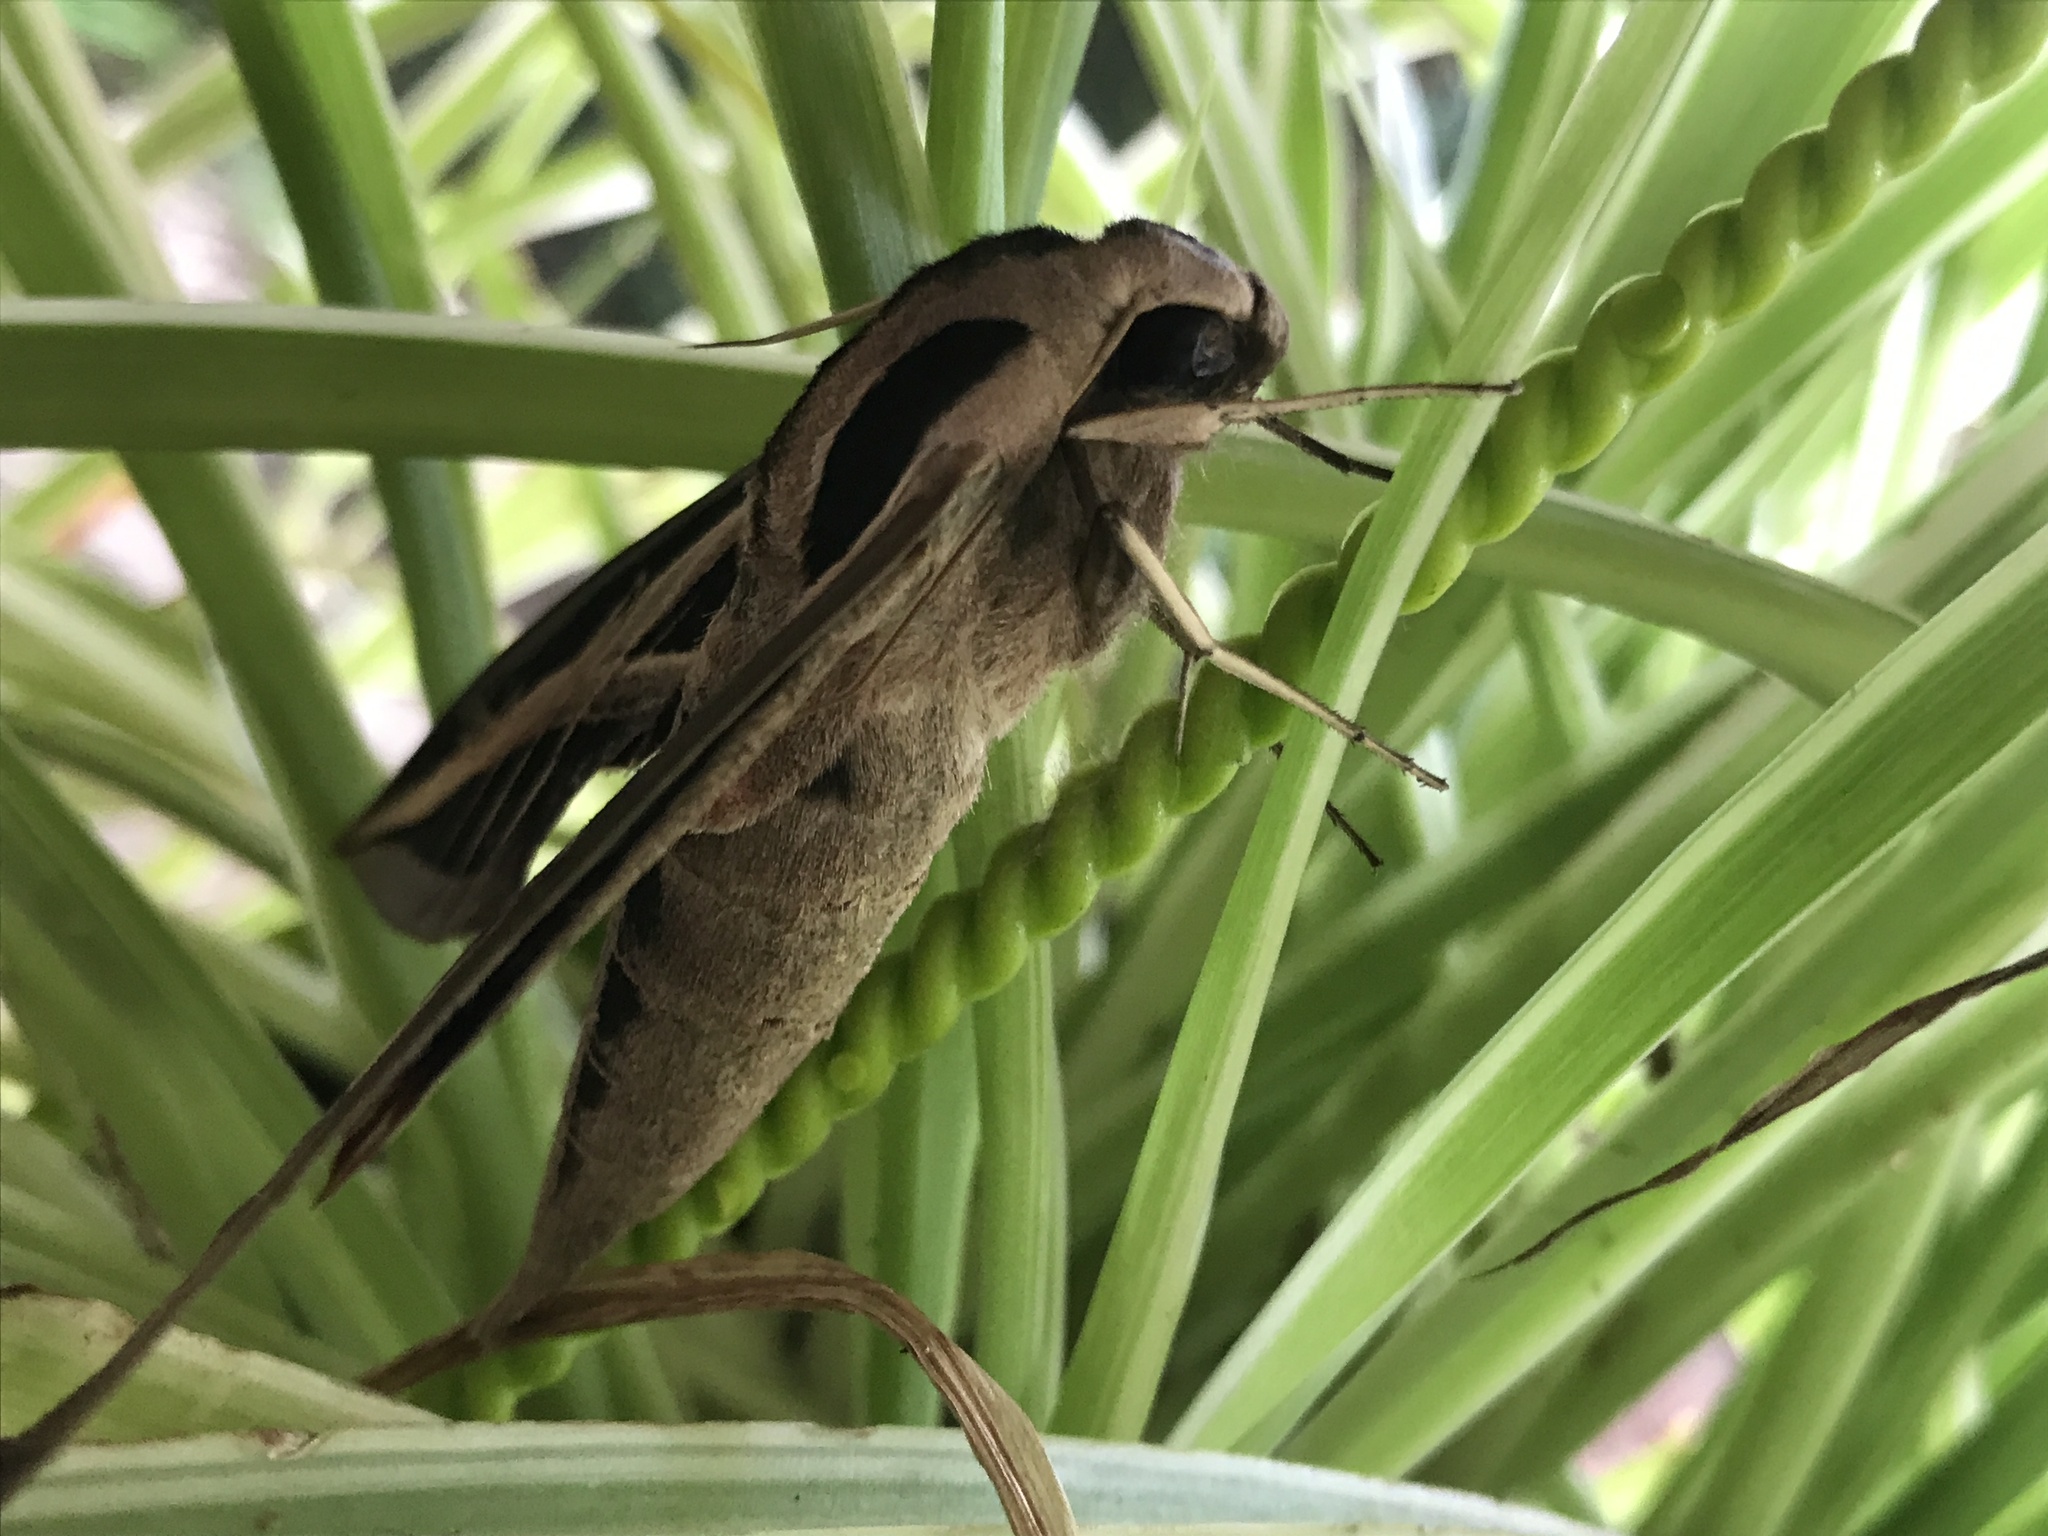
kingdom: Animalia
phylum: Arthropoda
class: Insecta
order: Lepidoptera
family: Sphingidae
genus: Eumorpha
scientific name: Eumorpha fasciatus
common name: Banded sphinx
